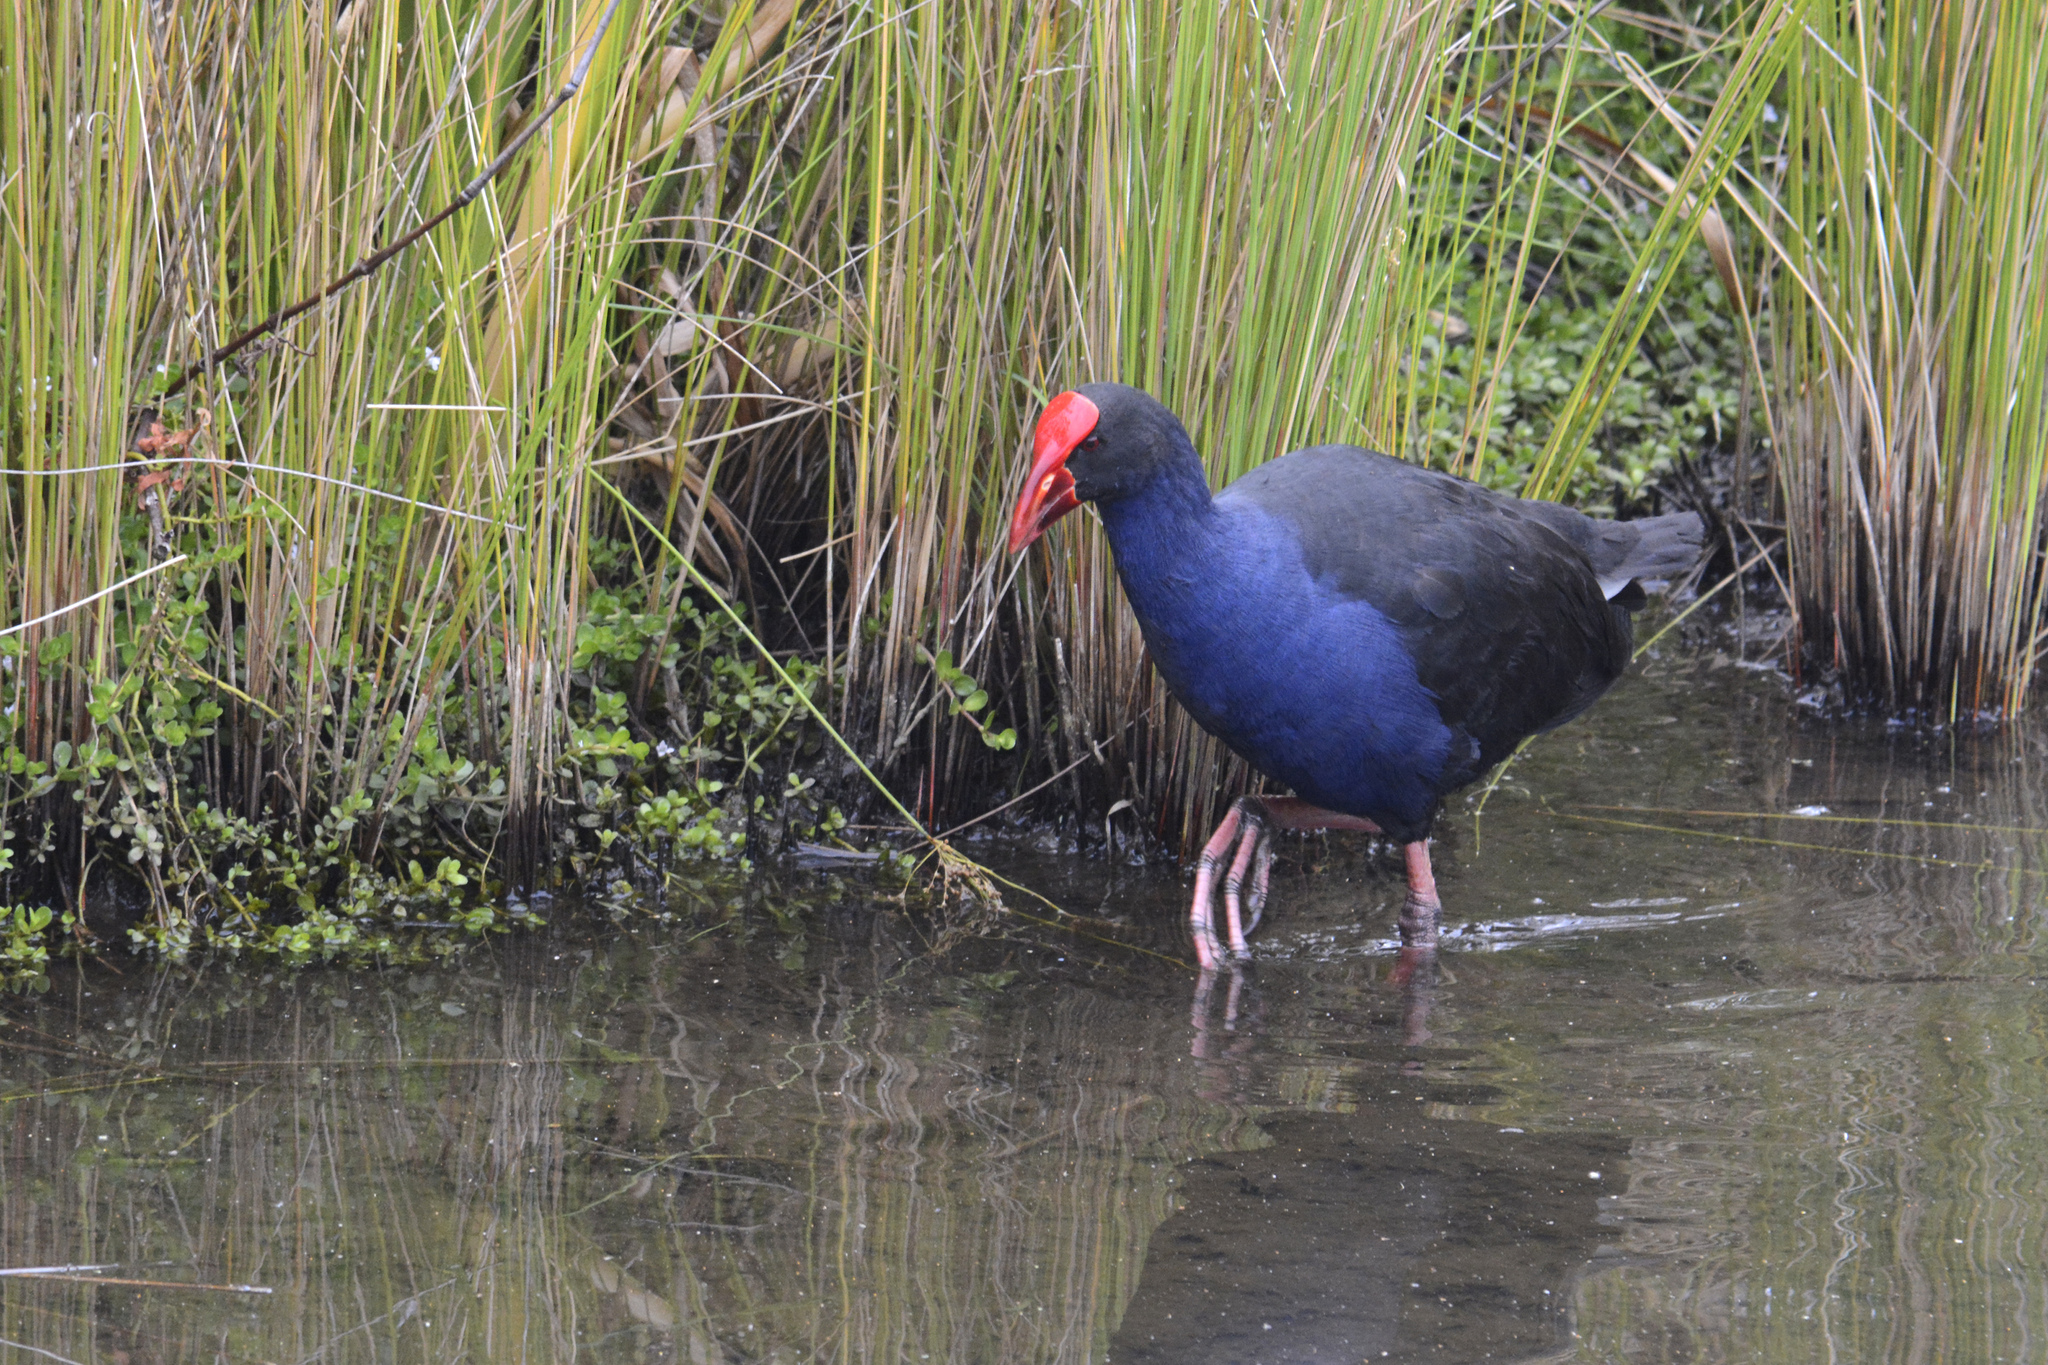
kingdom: Animalia
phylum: Chordata
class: Aves
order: Gruiformes
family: Rallidae
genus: Porphyrio
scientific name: Porphyrio melanotus
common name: Australasian swamphen
